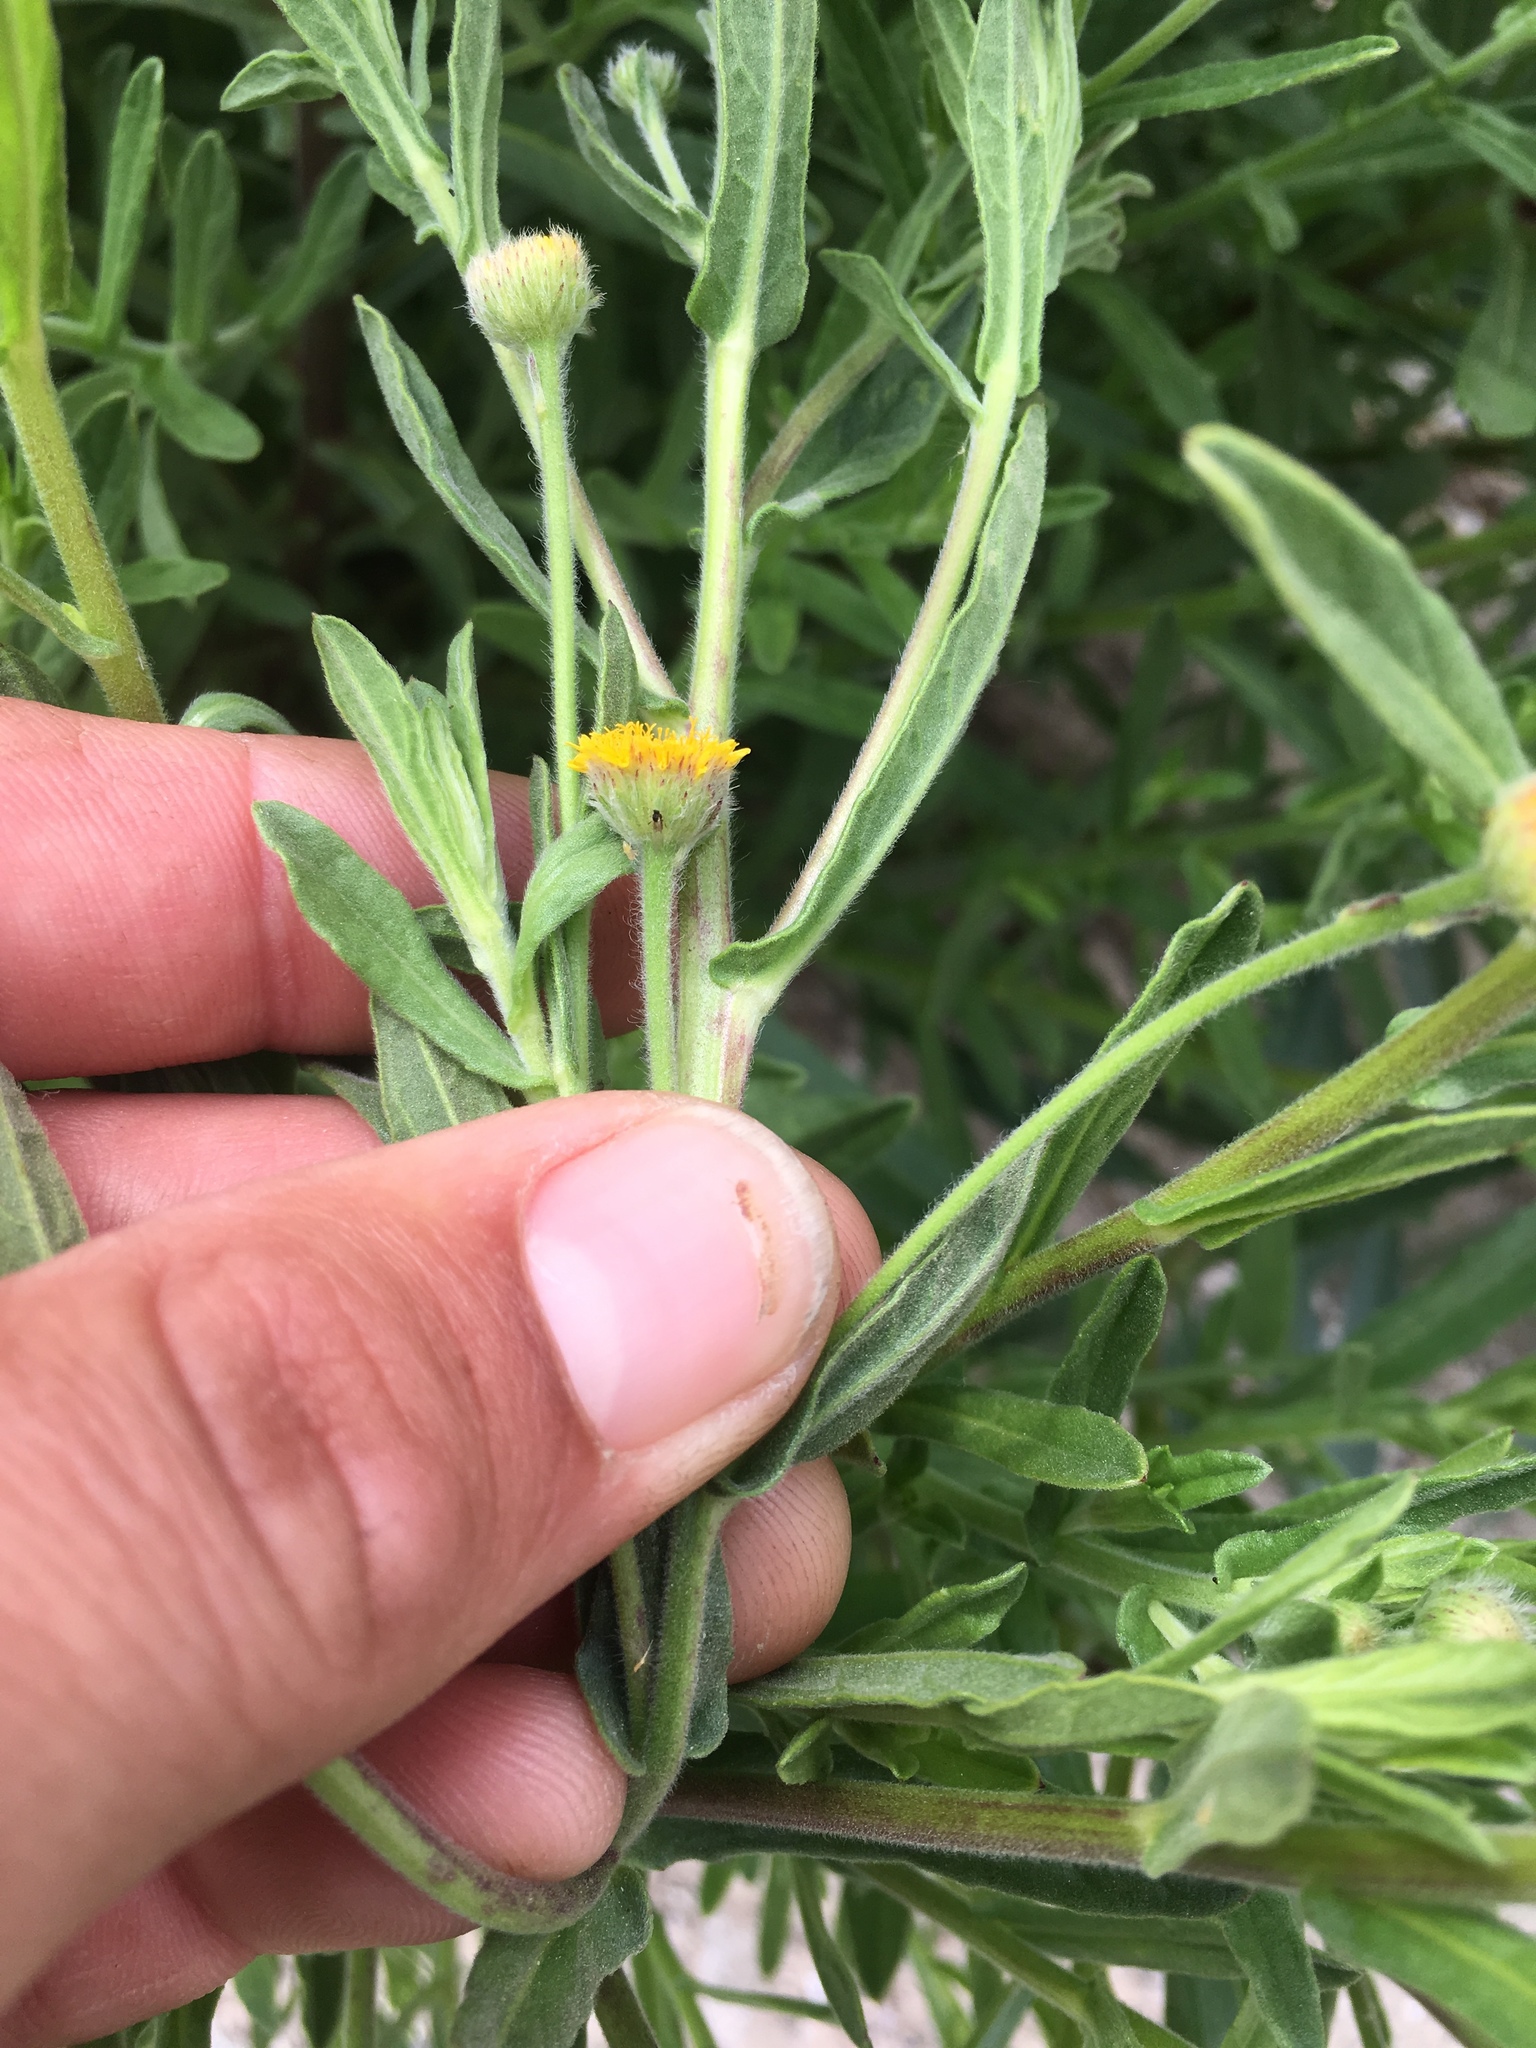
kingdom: Plantae
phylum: Tracheophyta
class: Magnoliopsida
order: Asterales
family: Asteraceae
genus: Pulicaria
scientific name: Pulicaria paludosa
